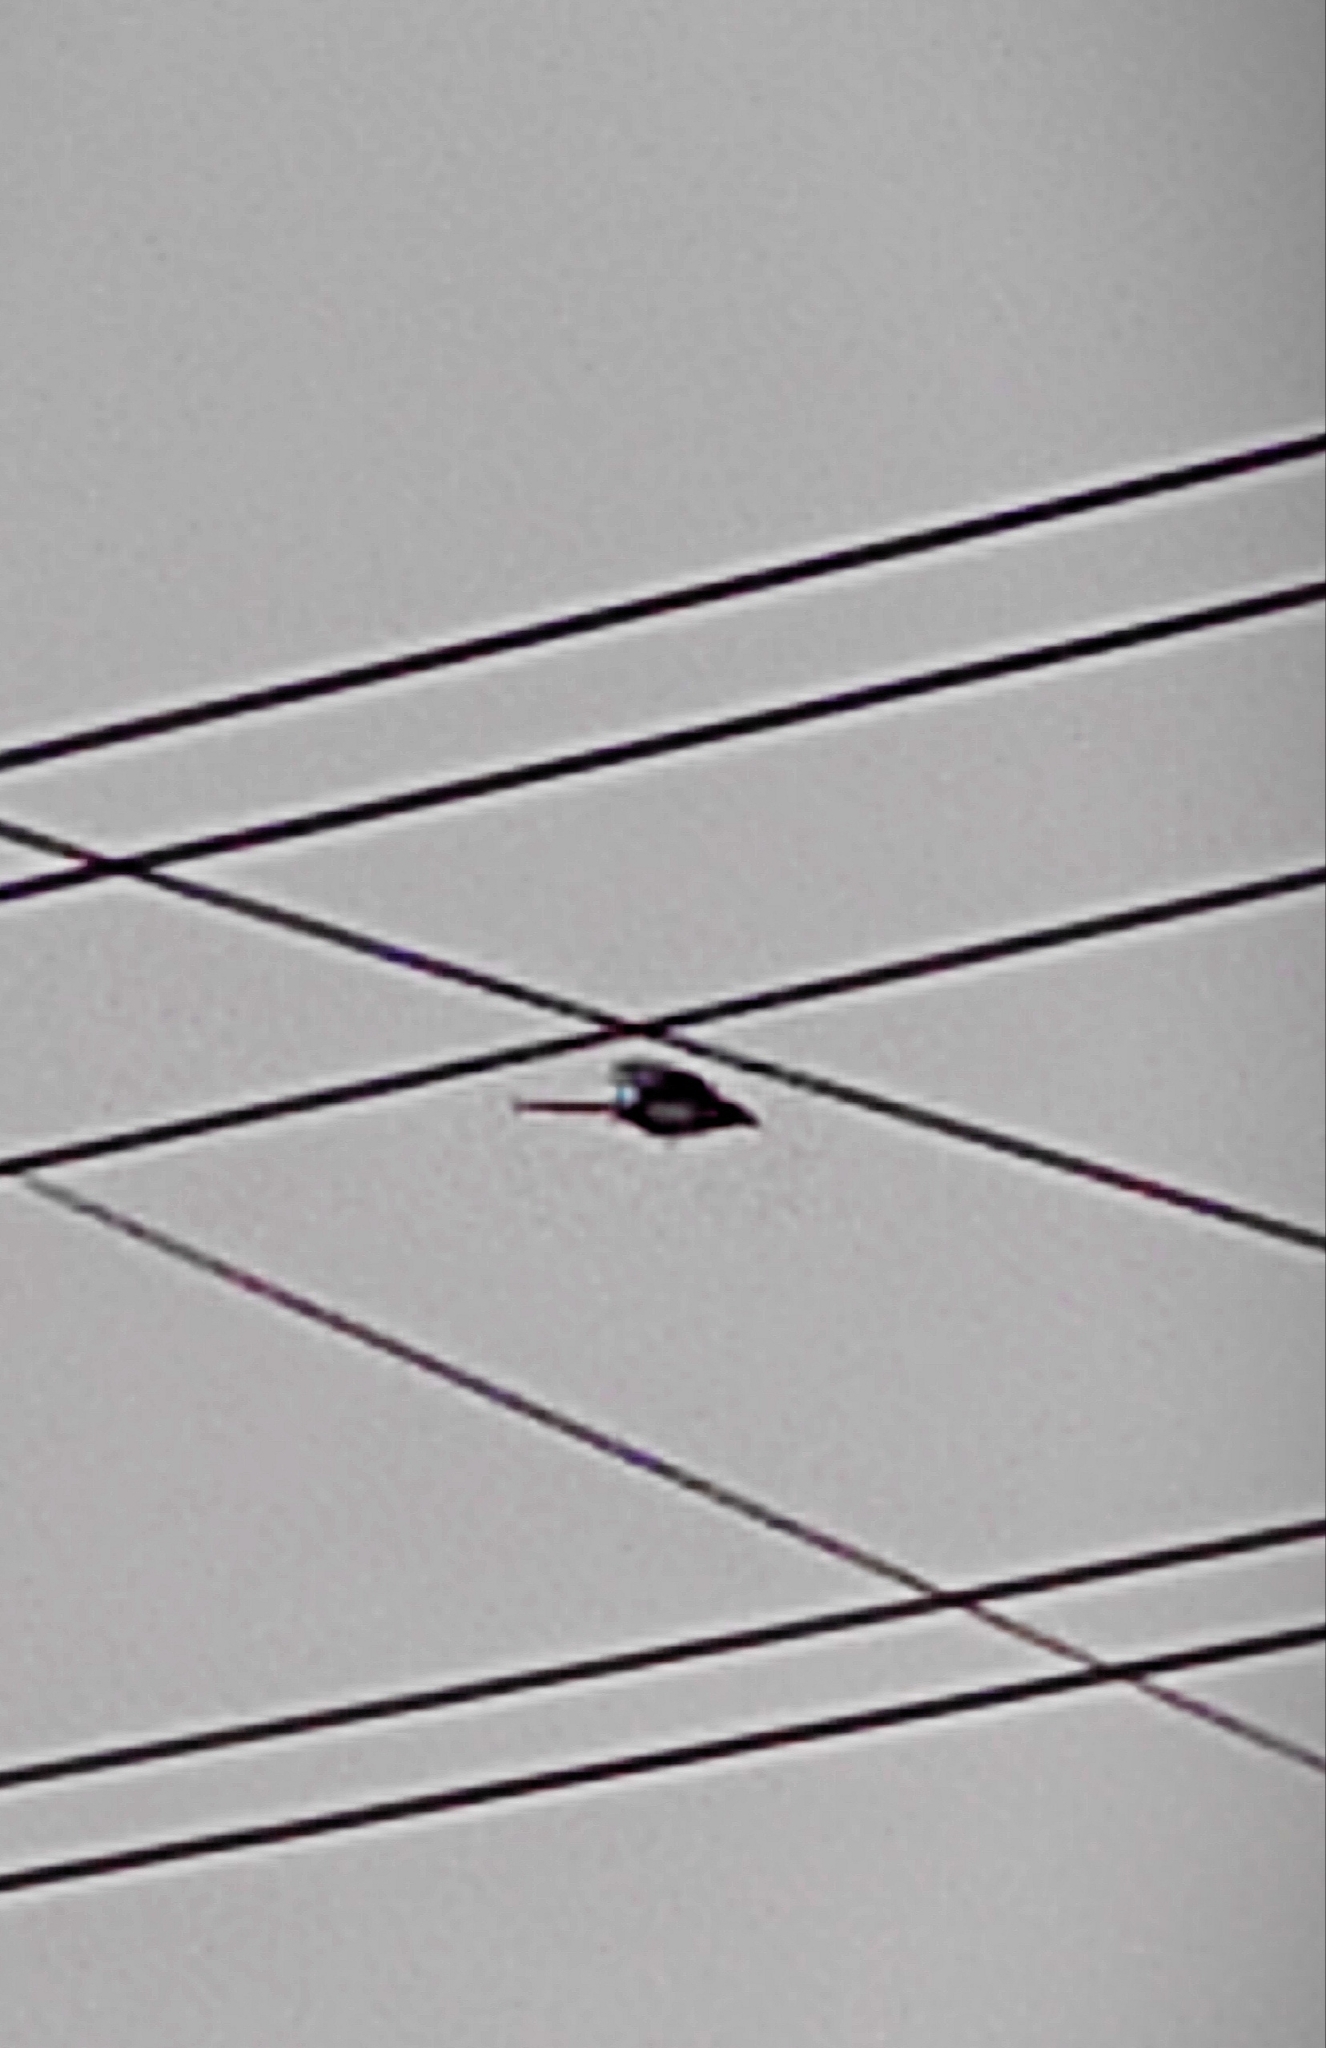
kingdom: Animalia
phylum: Chordata
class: Aves
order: Passeriformes
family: Corvidae
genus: Pica
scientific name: Pica pica
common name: Eurasian magpie
